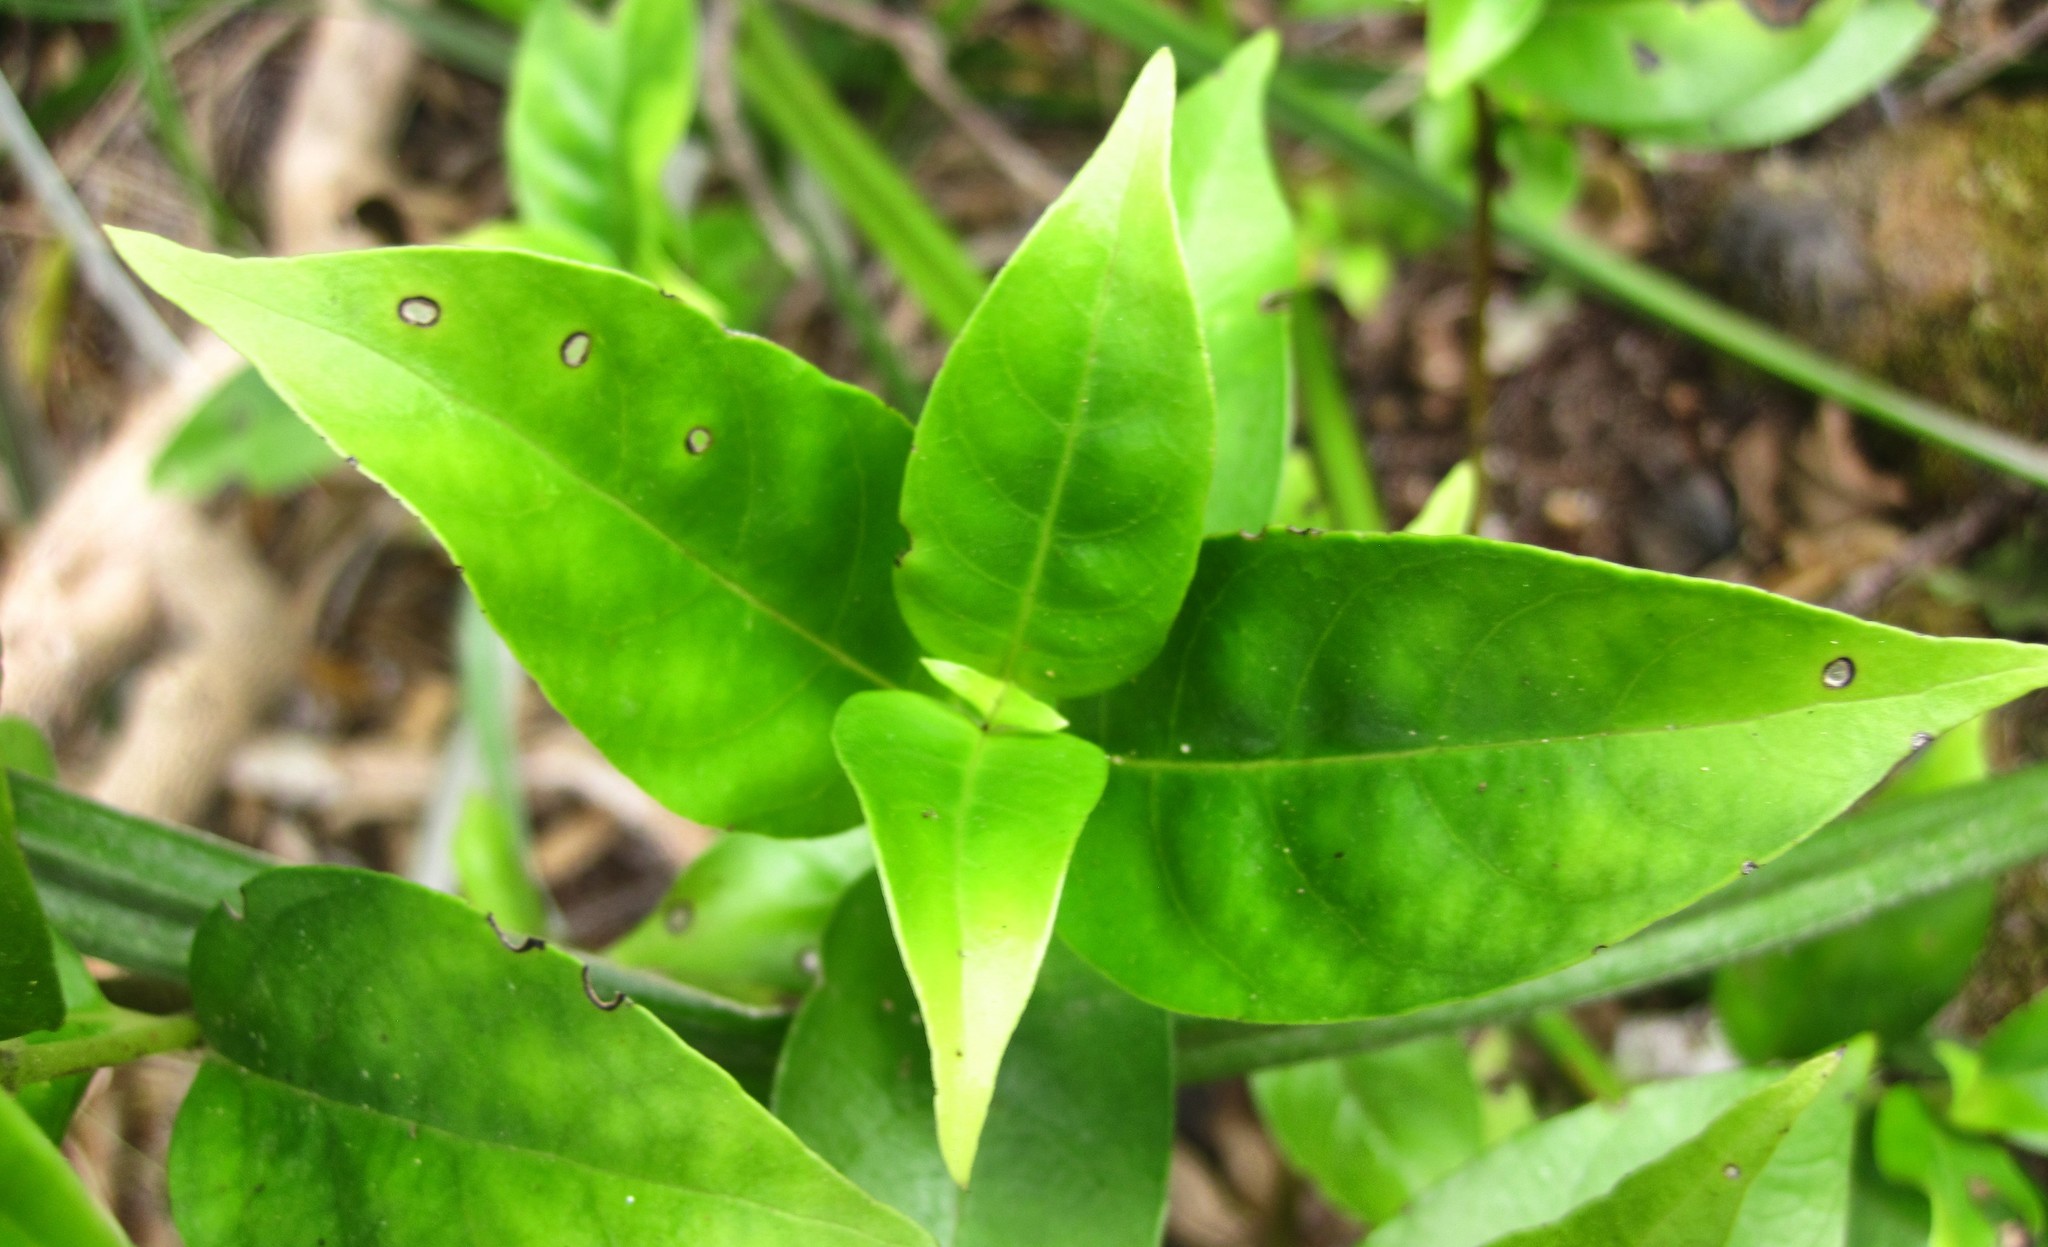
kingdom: Plantae
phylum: Tracheophyta
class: Magnoliopsida
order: Gentianales
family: Loganiaceae
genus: Geniostoma
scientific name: Geniostoma ligustrifolium
